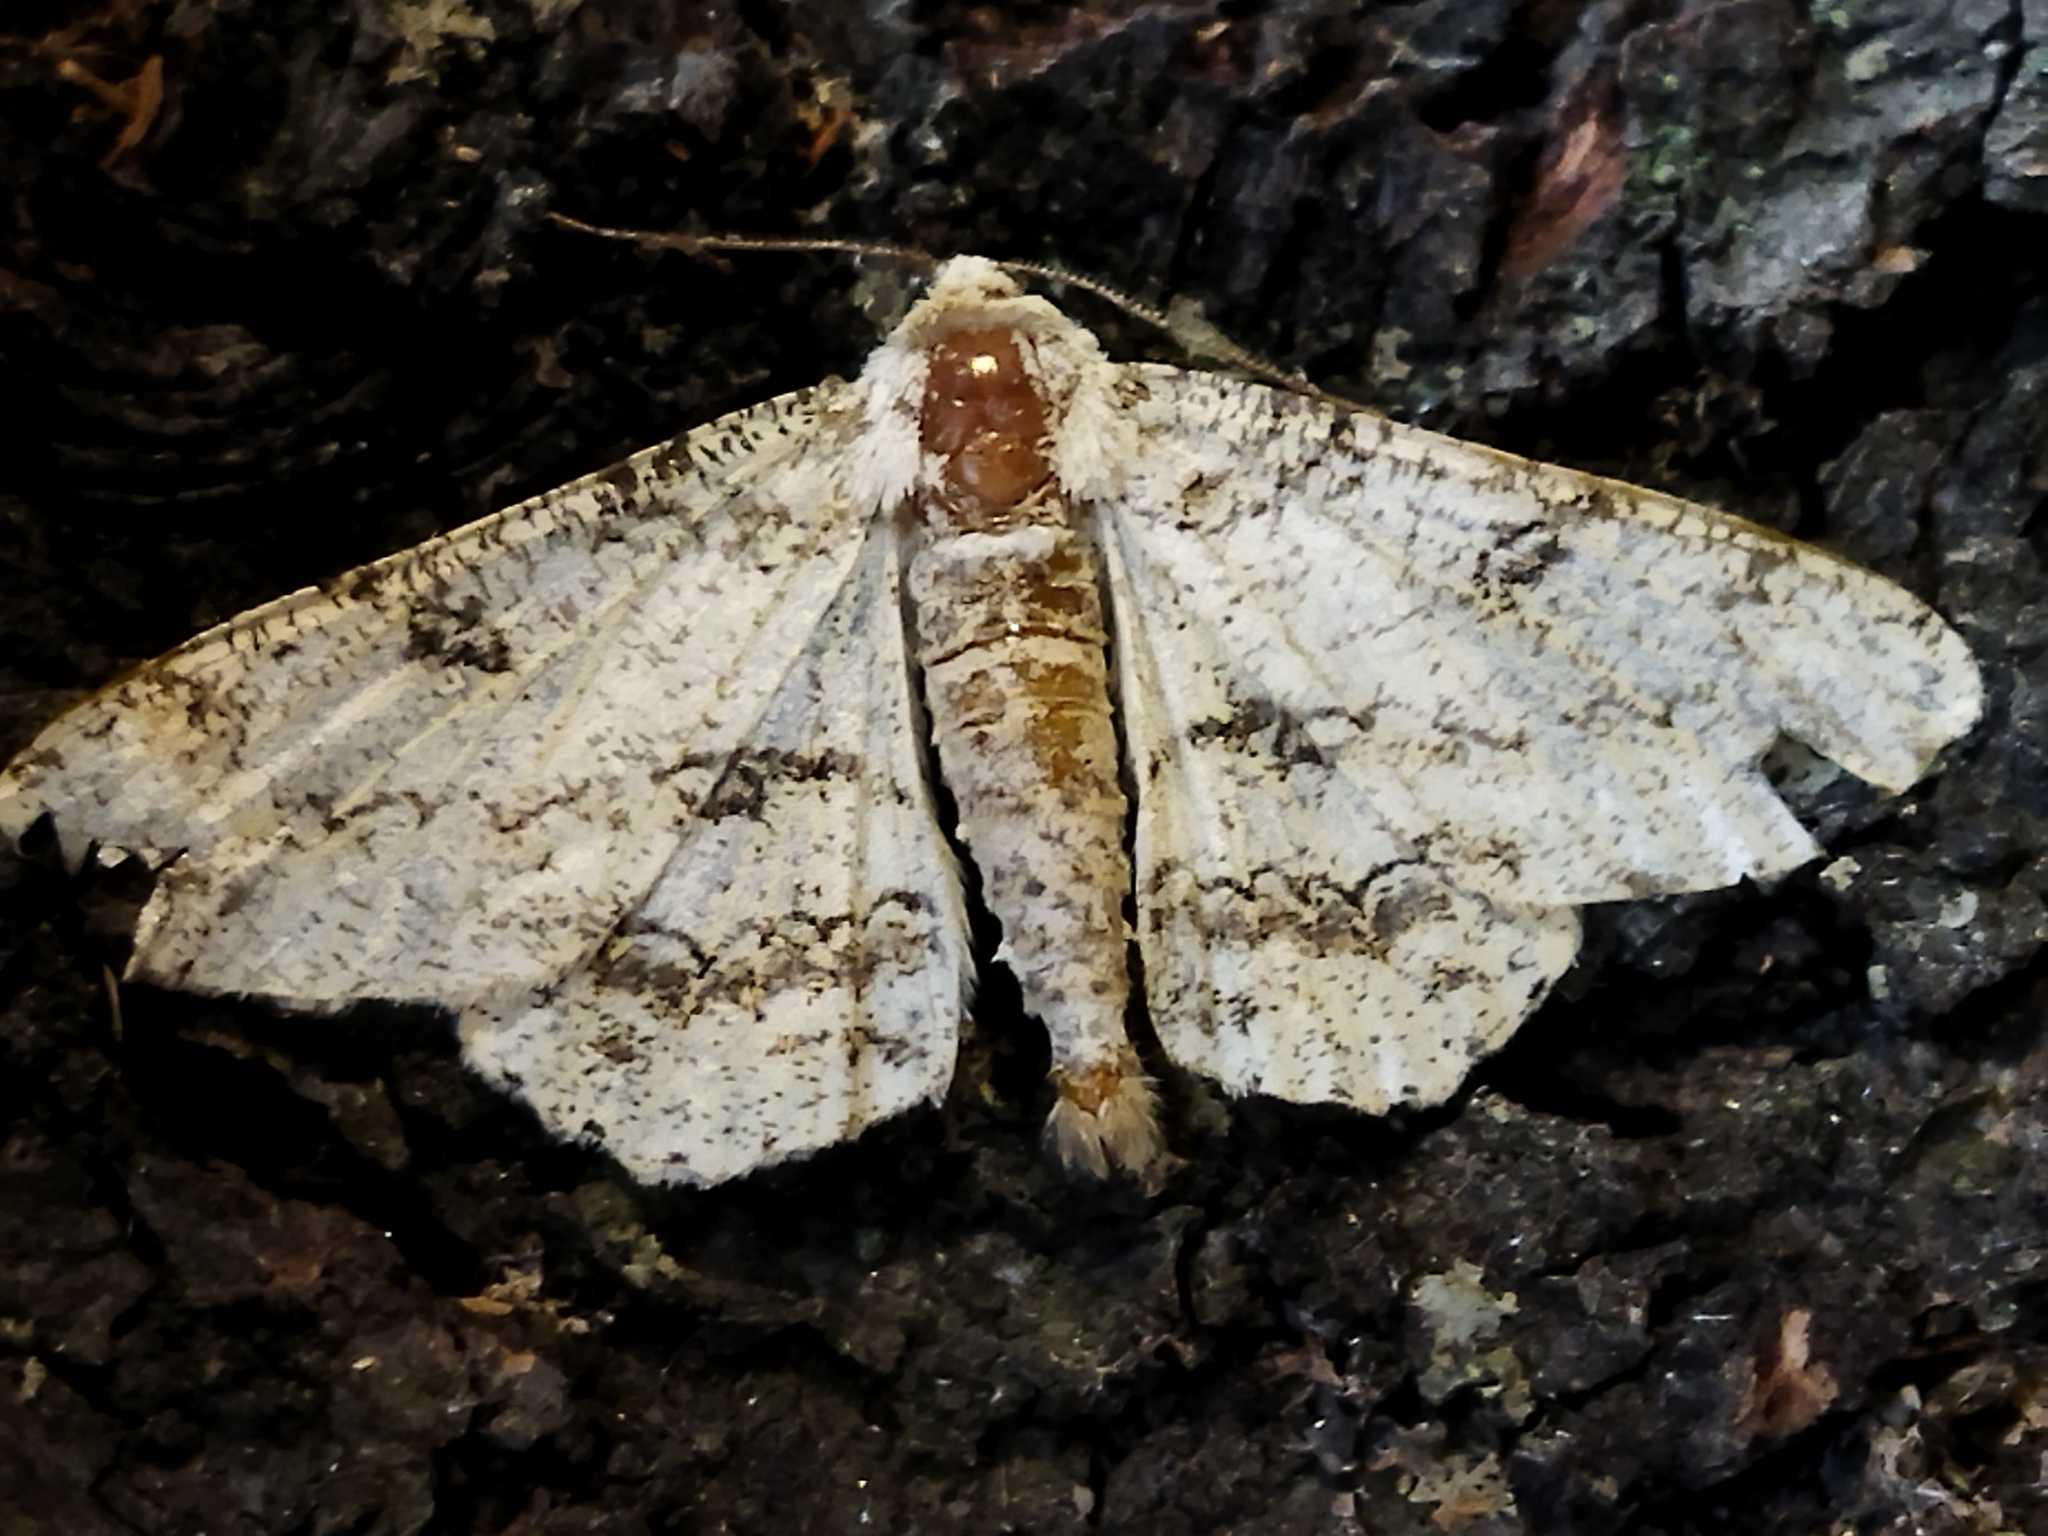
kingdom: Animalia
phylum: Arthropoda
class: Insecta
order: Lepidoptera
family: Geometridae
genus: Ascotis
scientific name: Ascotis selenaria
